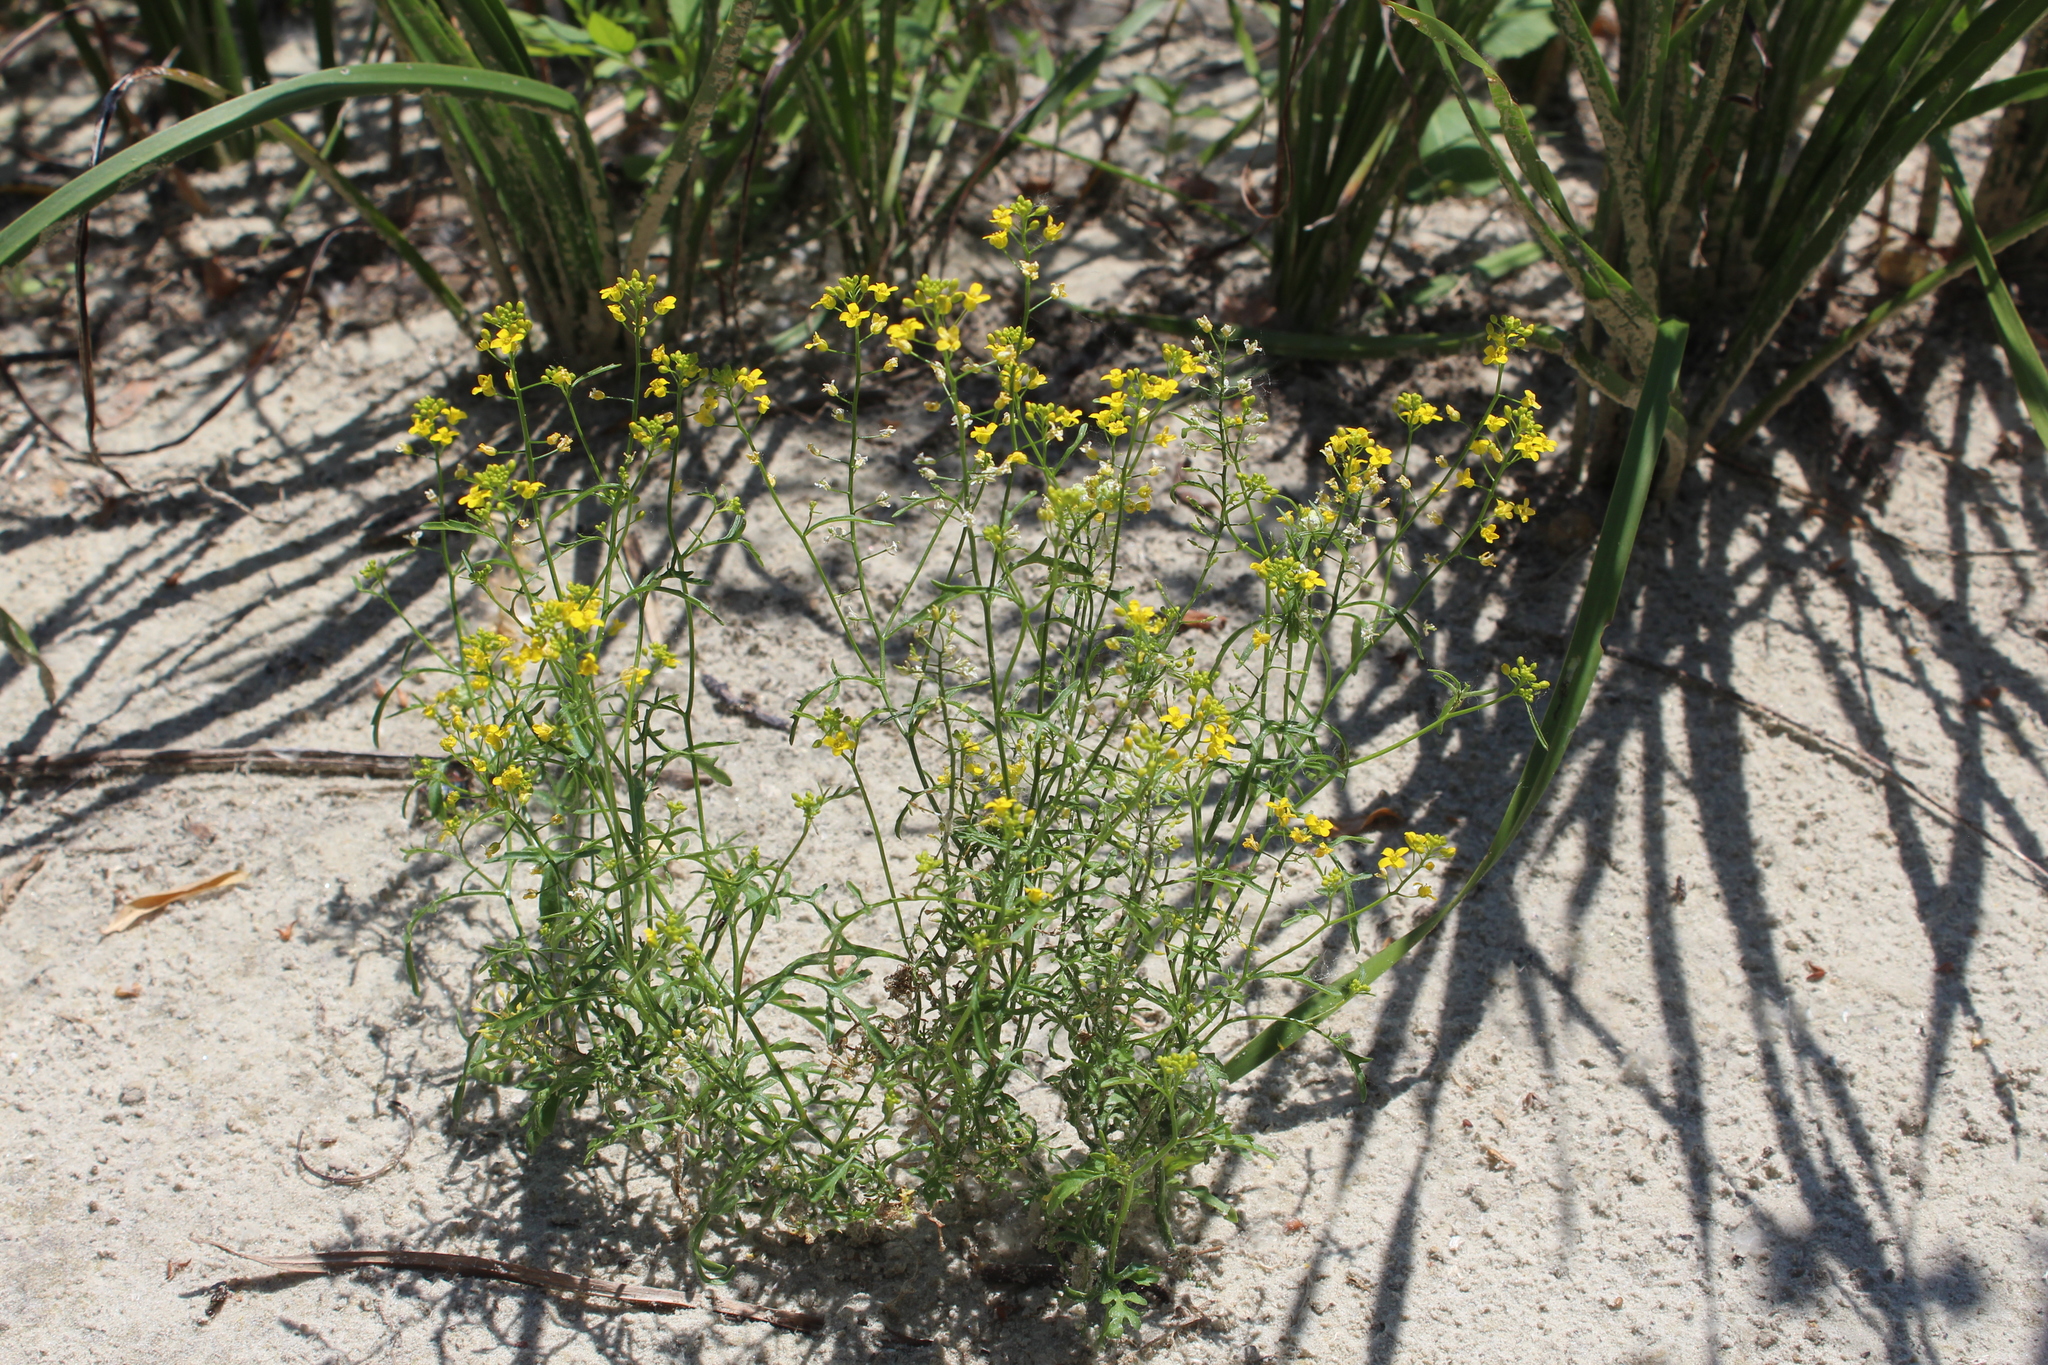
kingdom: Plantae
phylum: Tracheophyta
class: Magnoliopsida
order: Brassicales
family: Brassicaceae
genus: Rorippa
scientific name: Rorippa brachycarpa
